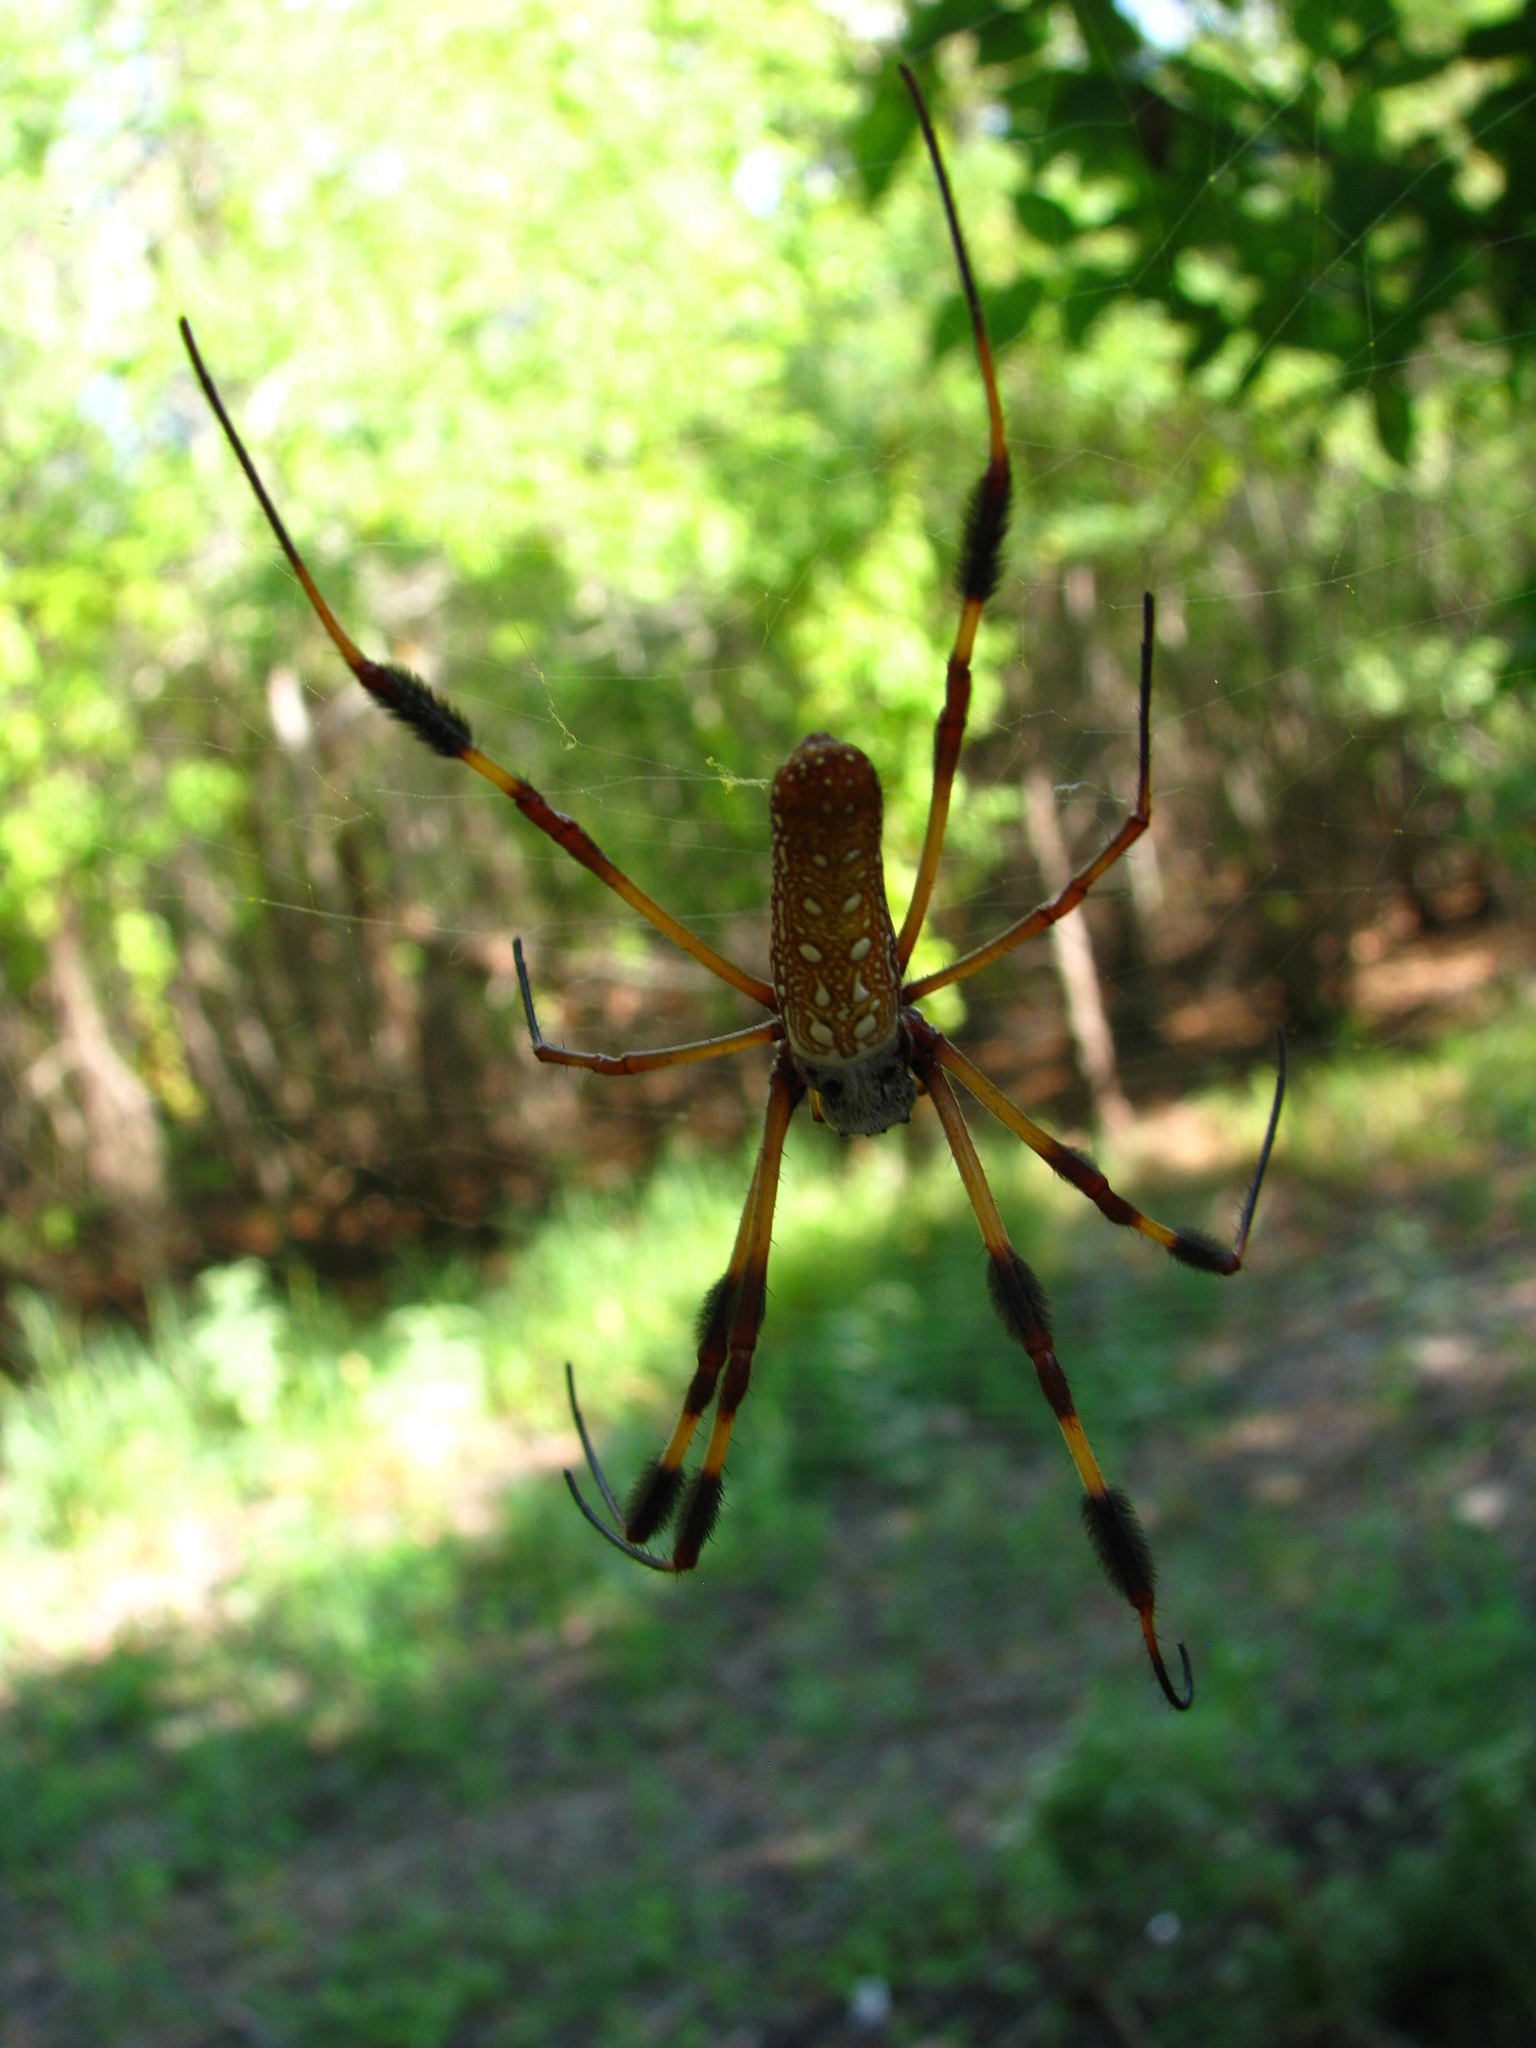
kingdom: Animalia
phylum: Arthropoda
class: Arachnida
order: Araneae
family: Araneidae
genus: Trichonephila
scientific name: Trichonephila clavipes
